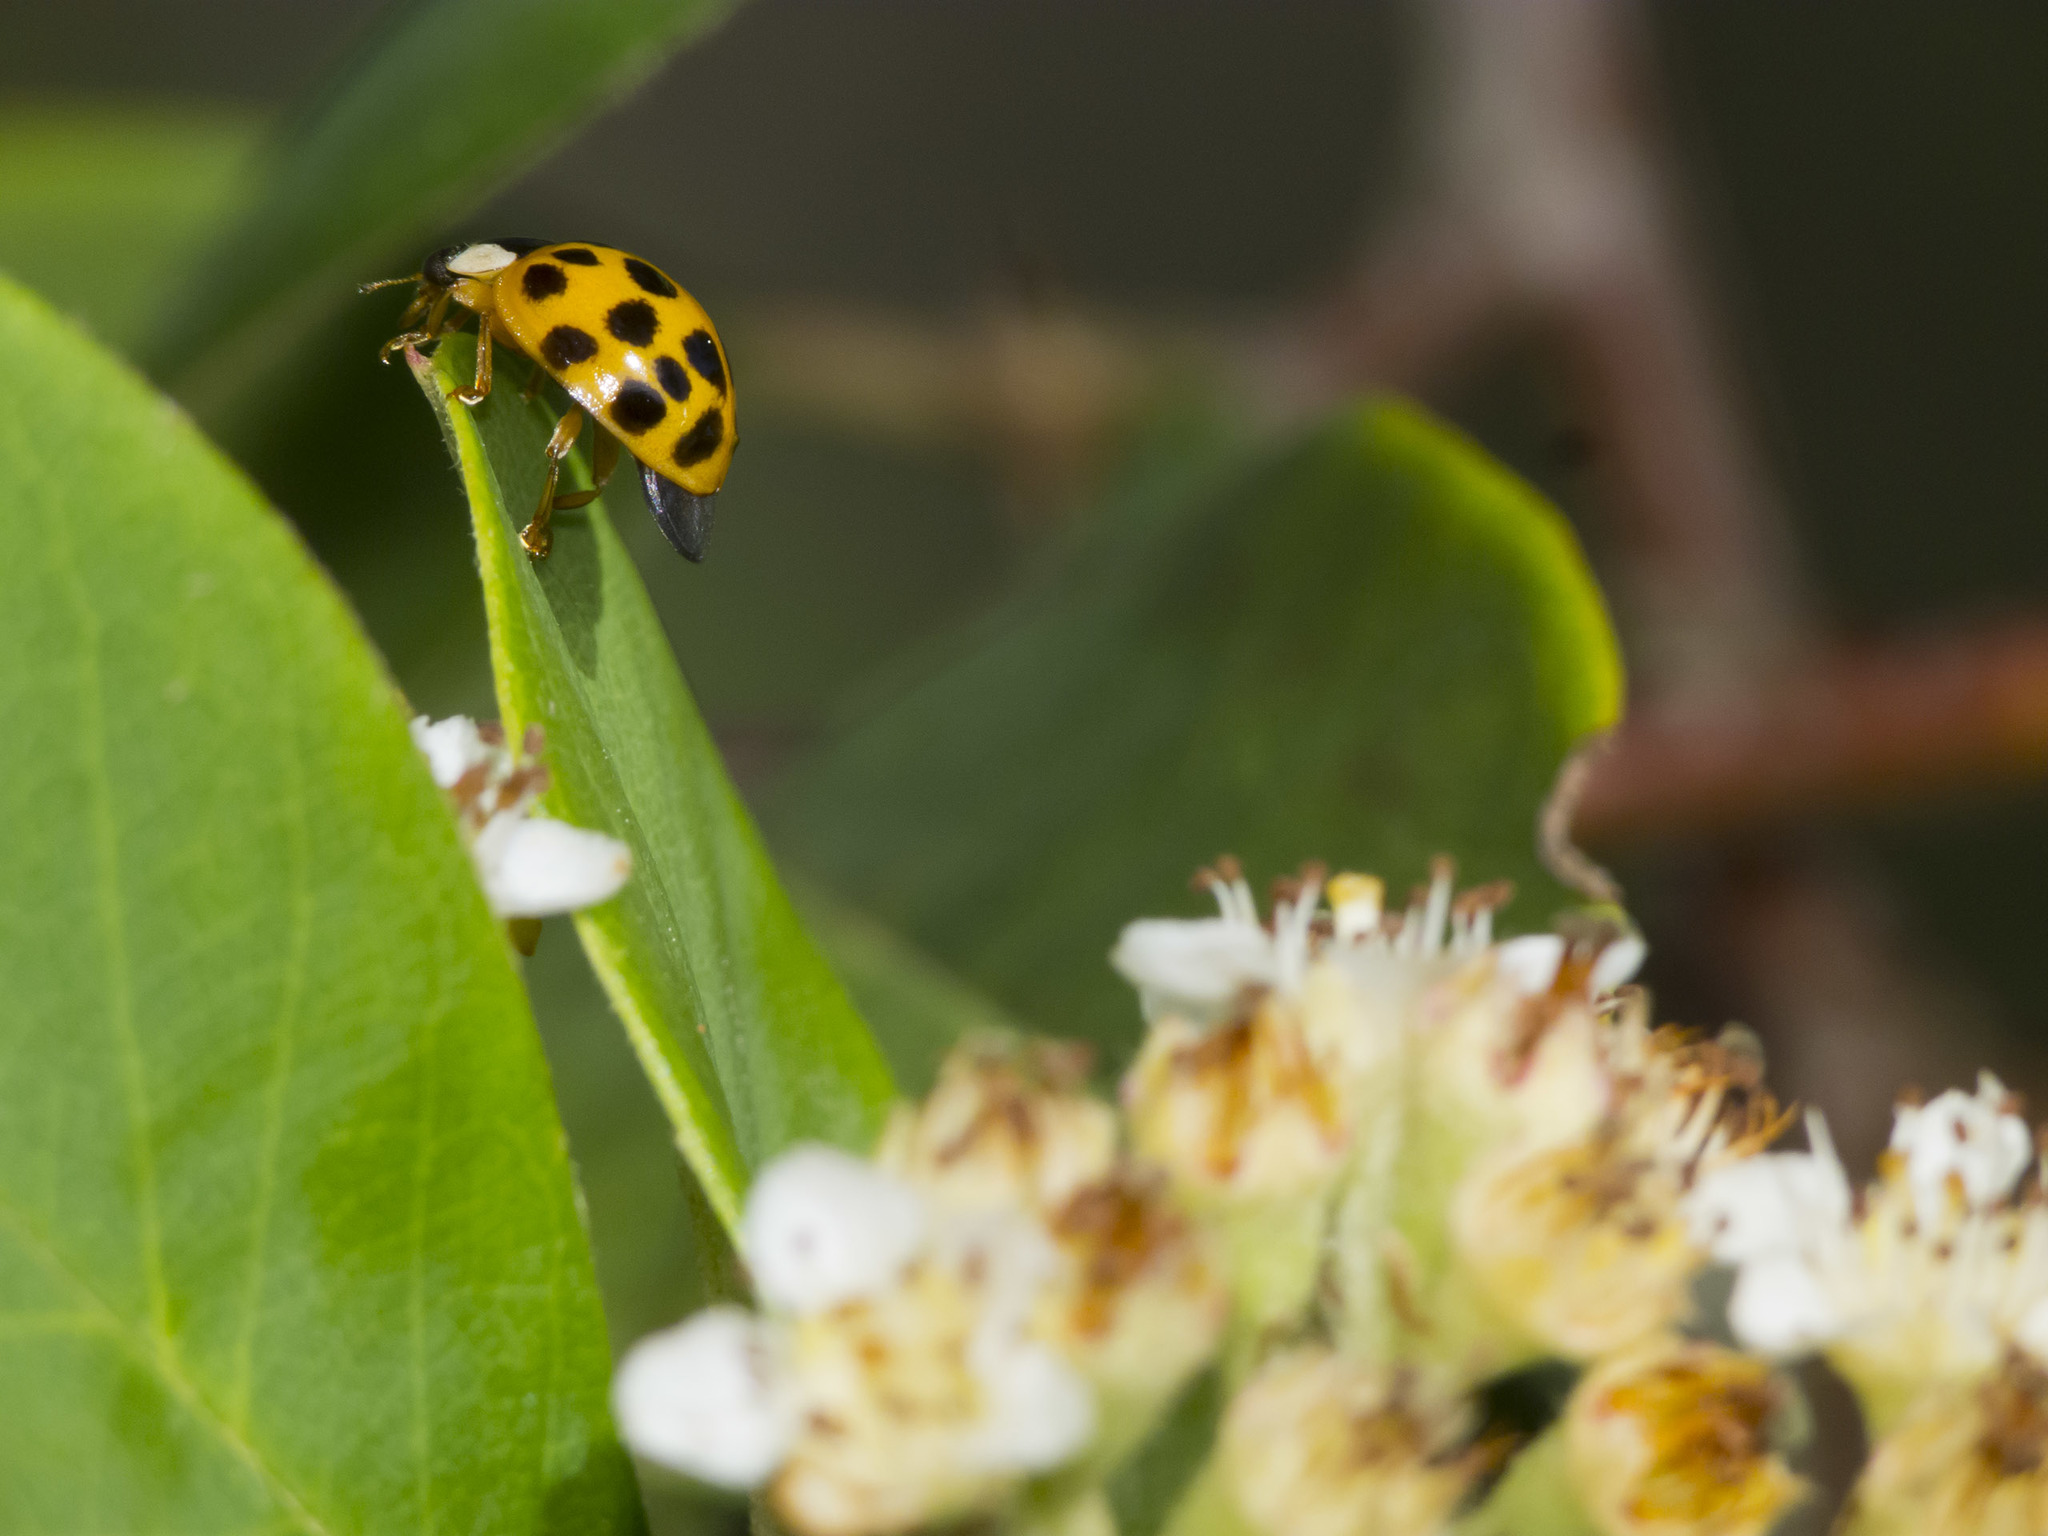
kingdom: Animalia
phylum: Arthropoda
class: Insecta
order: Coleoptera
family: Coccinellidae
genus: Harmonia
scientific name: Harmonia axyridis
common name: Harlequin ladybird
